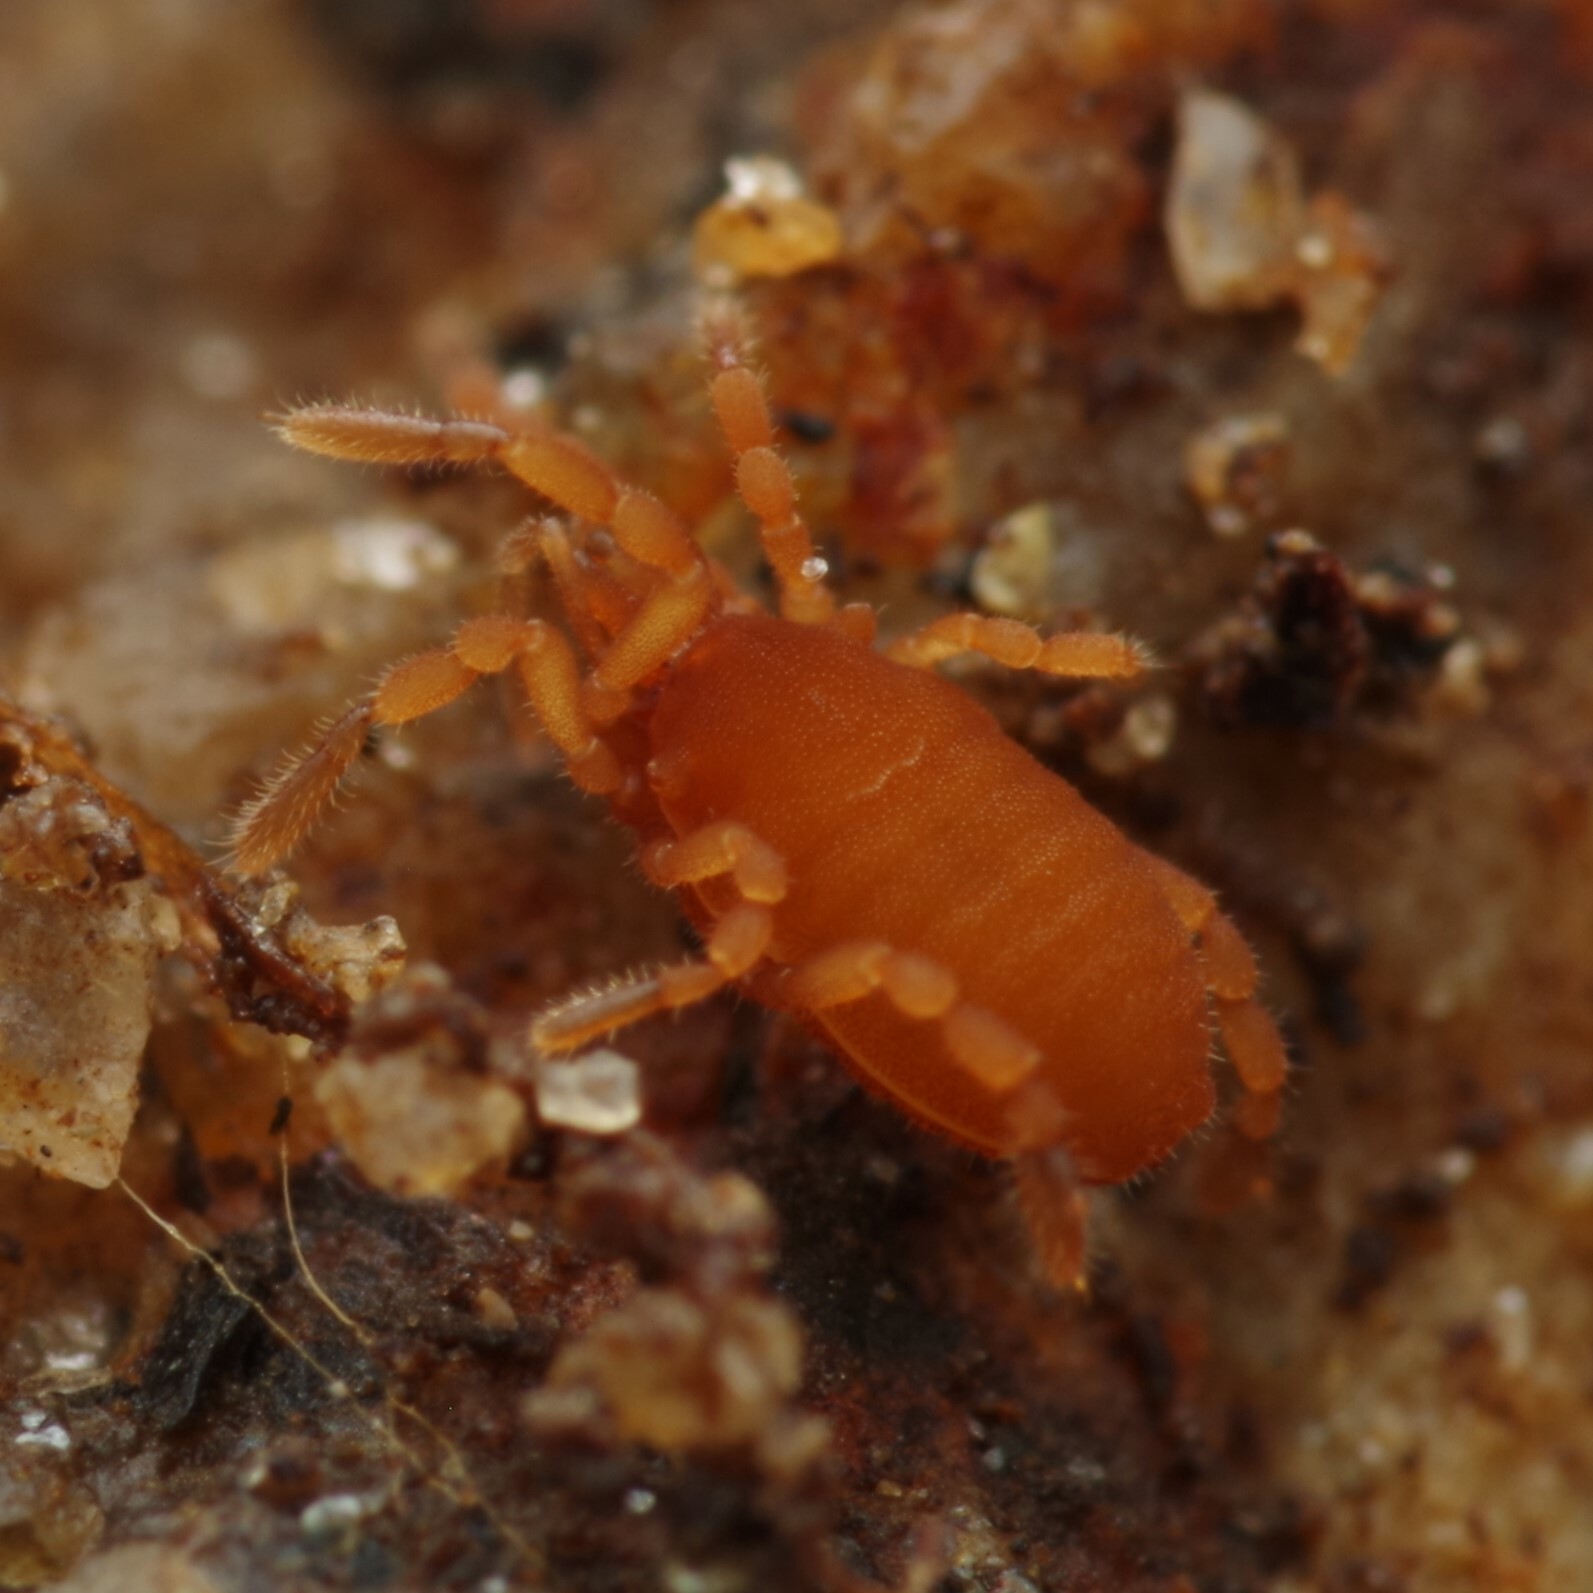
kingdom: Animalia
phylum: Arthropoda
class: Arachnida
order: Opiliones
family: Sironidae
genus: Siro
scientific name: Siro rubens
